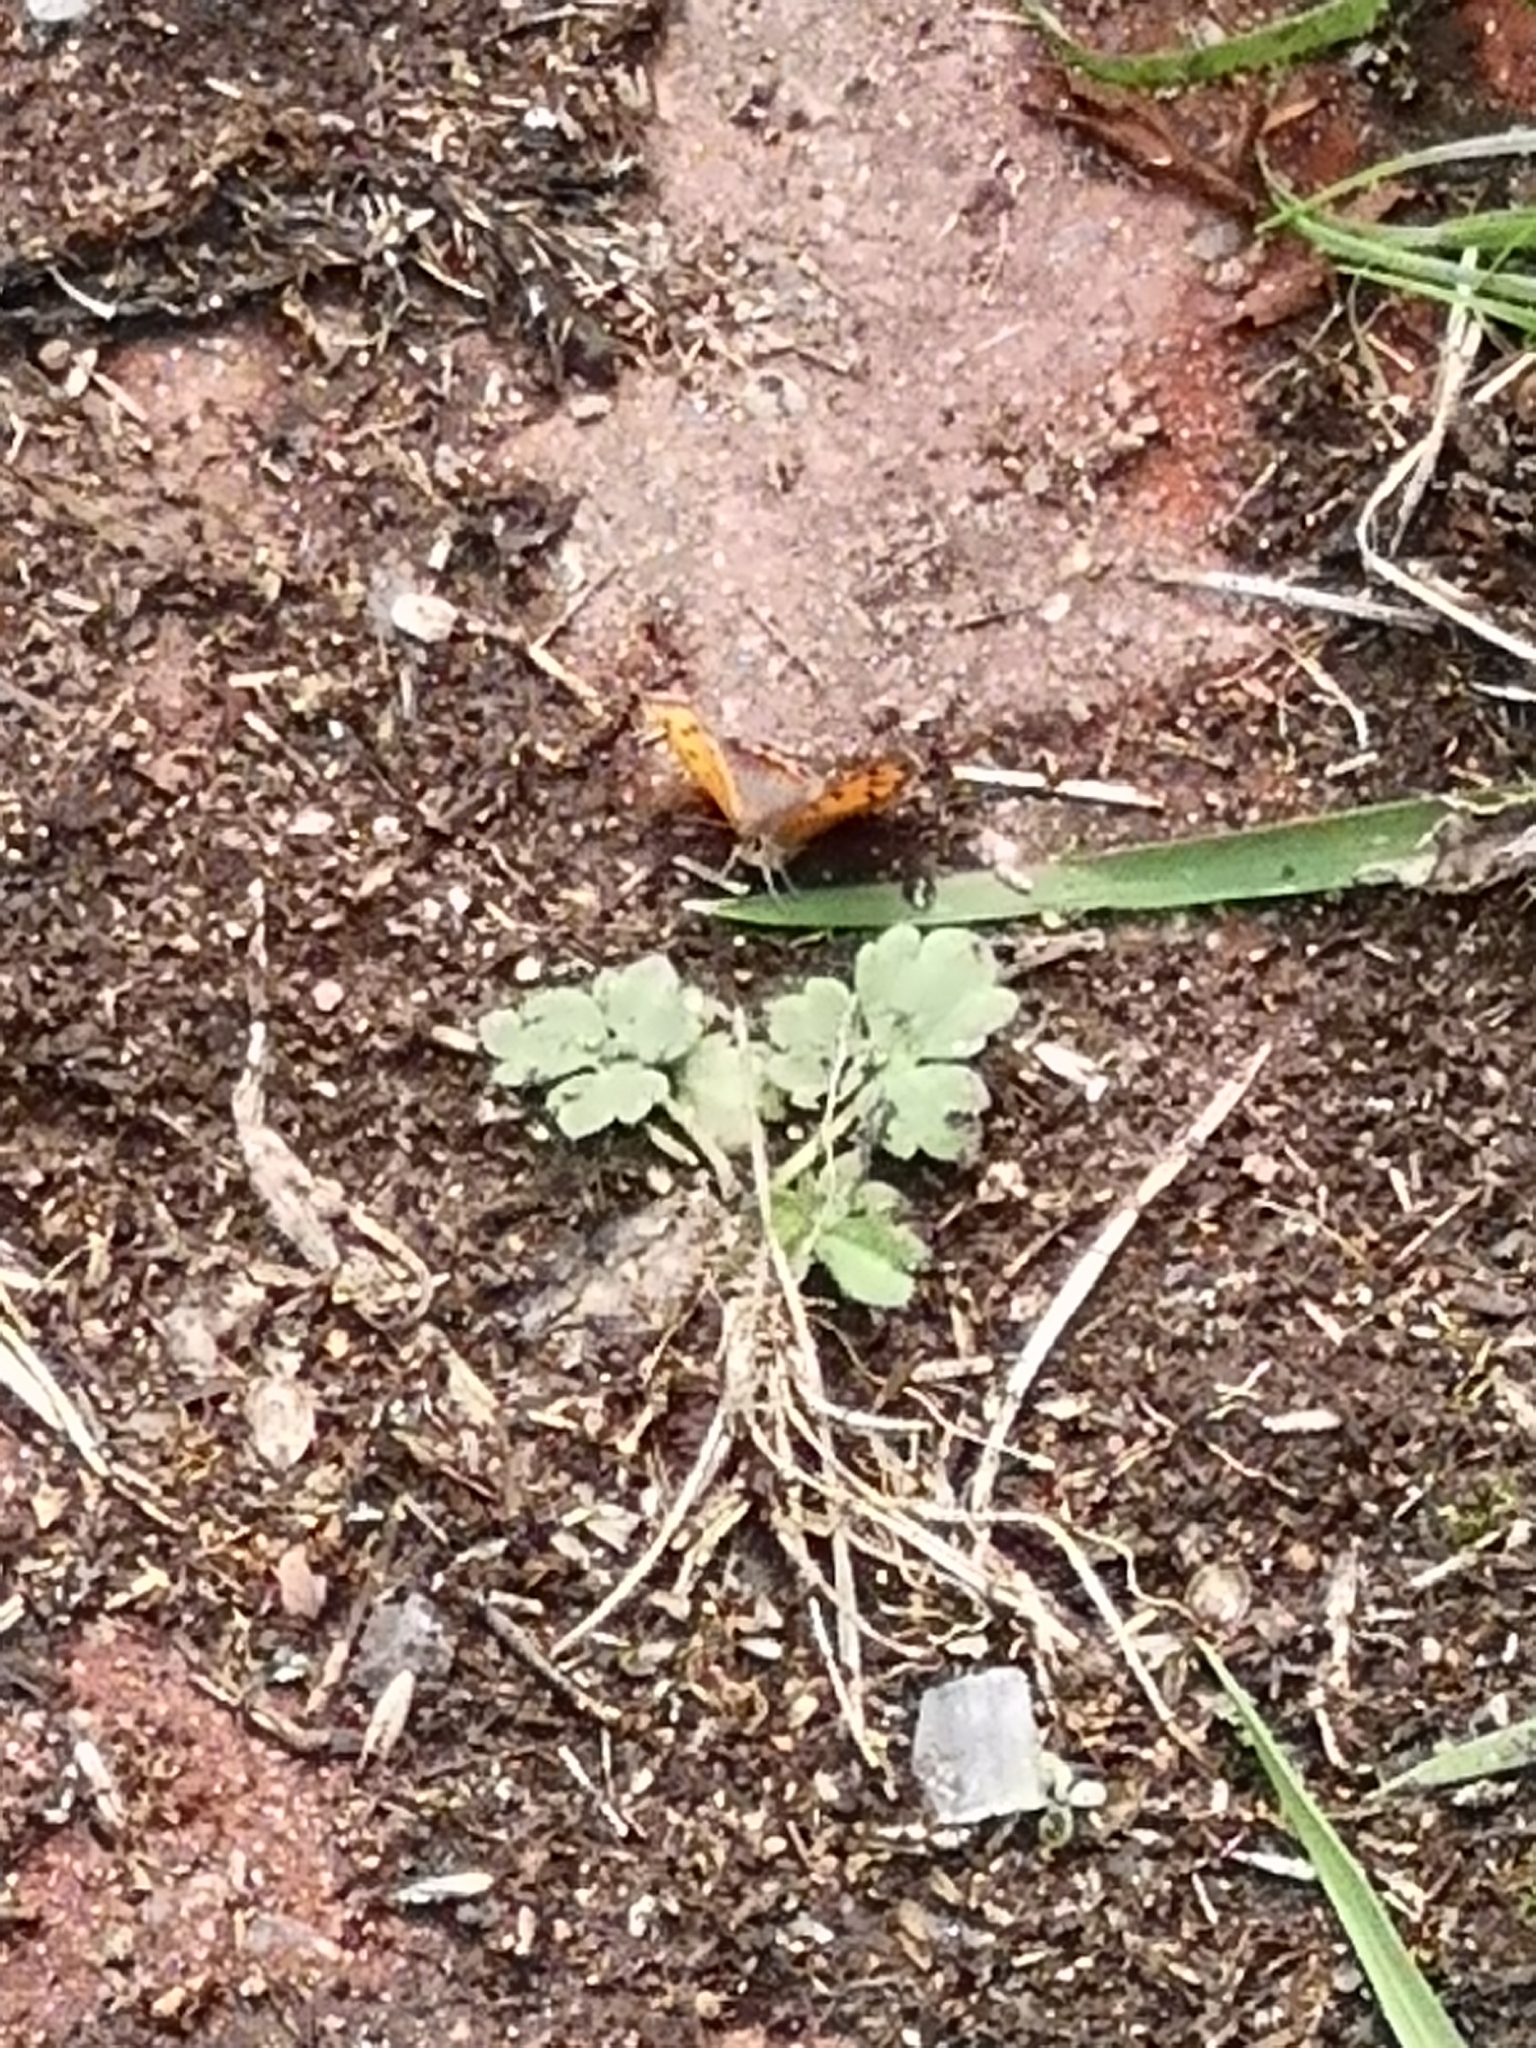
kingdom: Animalia
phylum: Arthropoda
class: Insecta
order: Lepidoptera
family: Lycaenidae
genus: Lycaena
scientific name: Lycaena phlaeas
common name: Small copper
